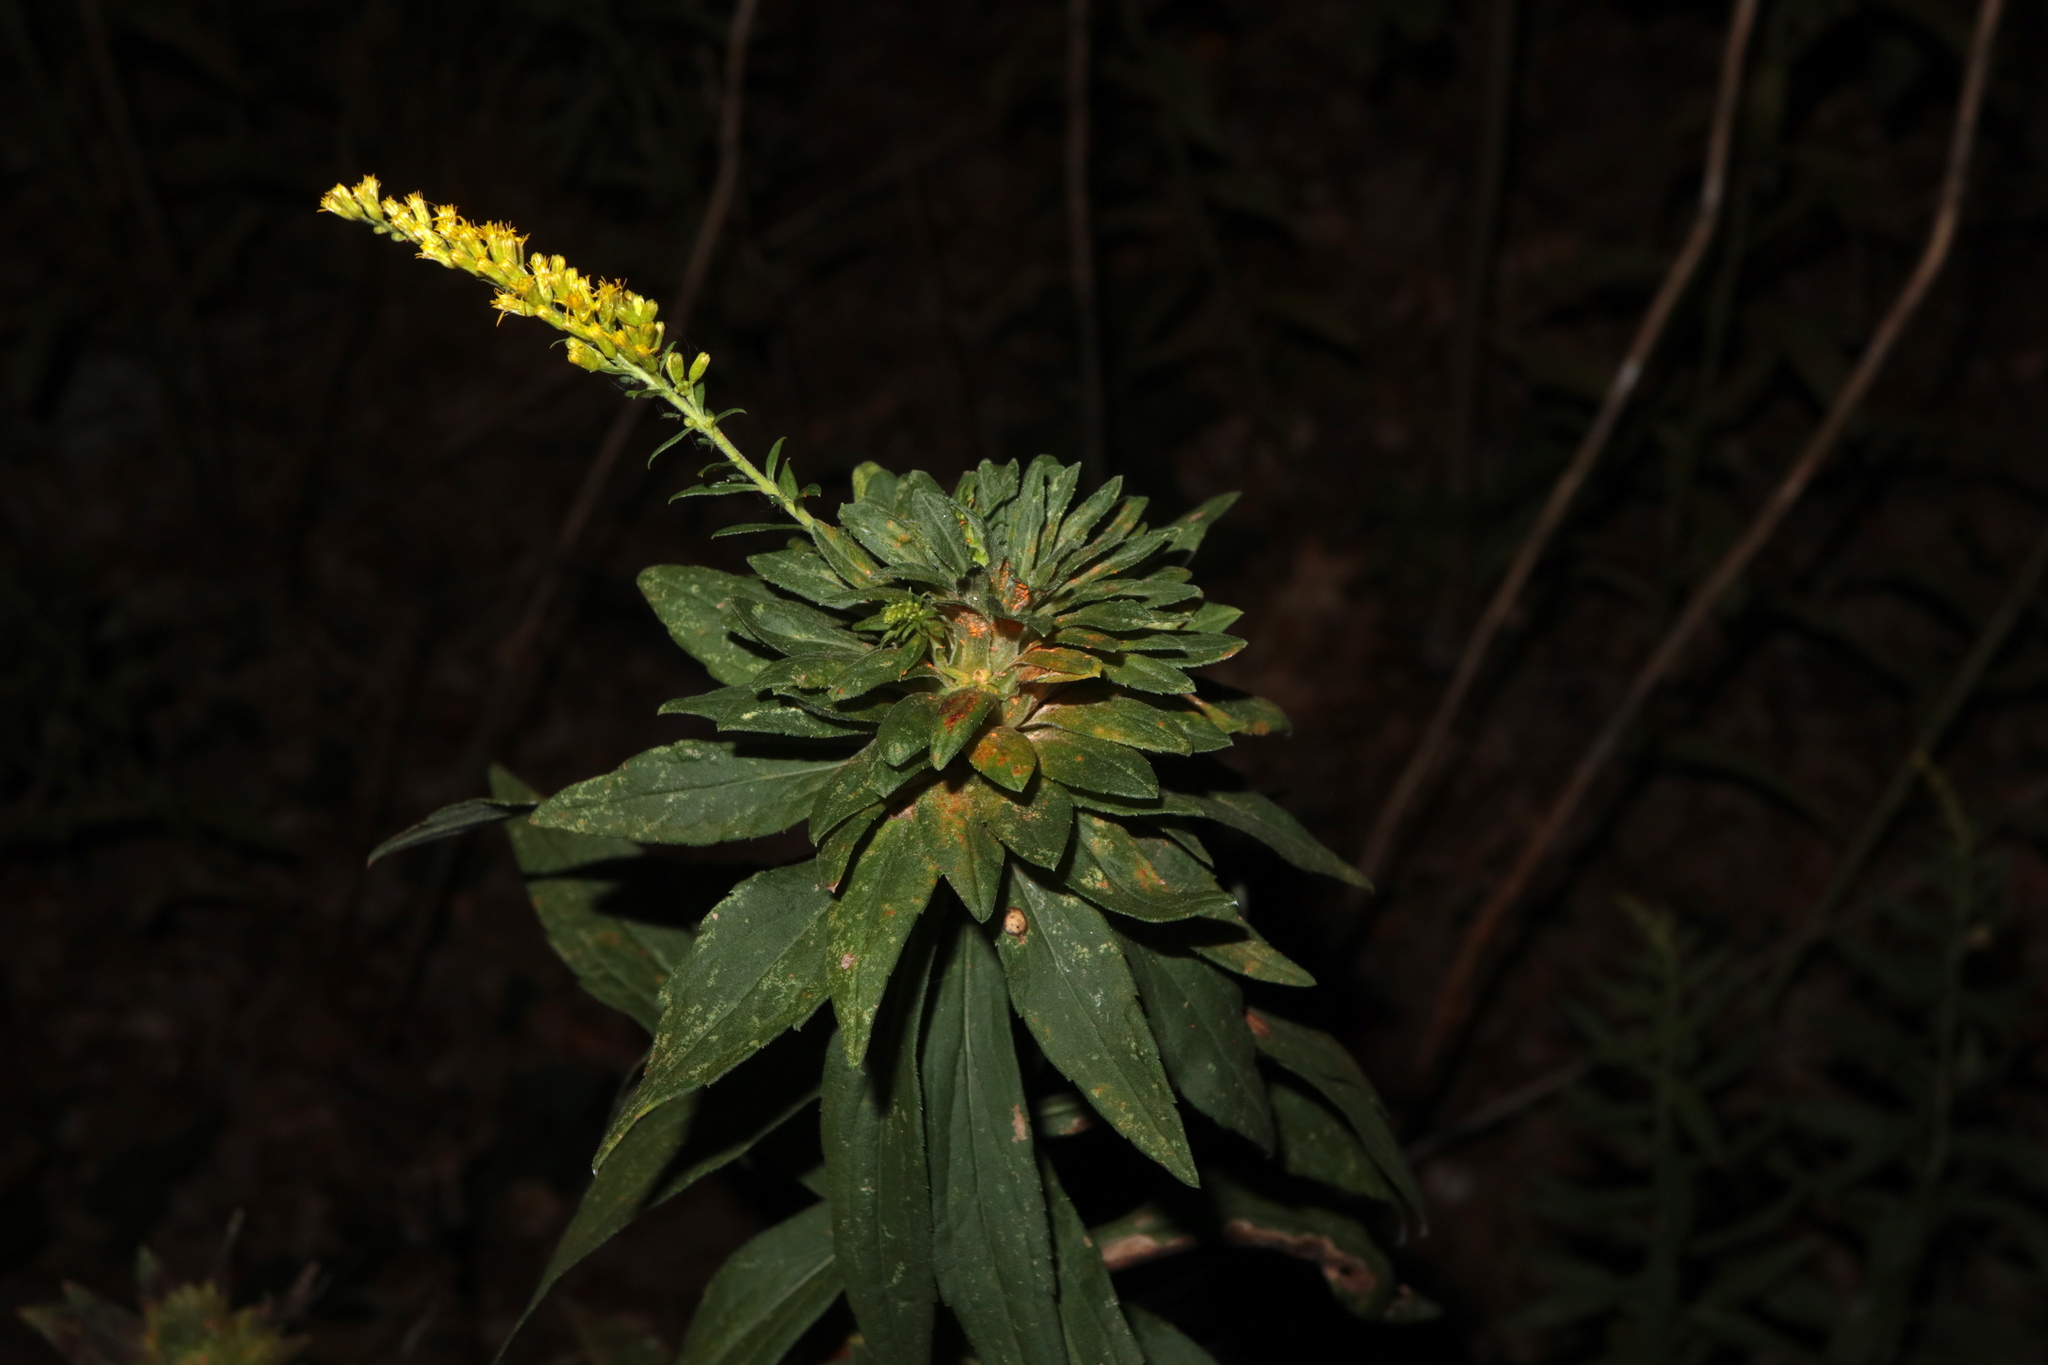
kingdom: Animalia
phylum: Arthropoda
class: Insecta
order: Diptera
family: Tephritidae
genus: Procecidochares
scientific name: Procecidochares atra
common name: Goldenrod brussels sprout gall fly
